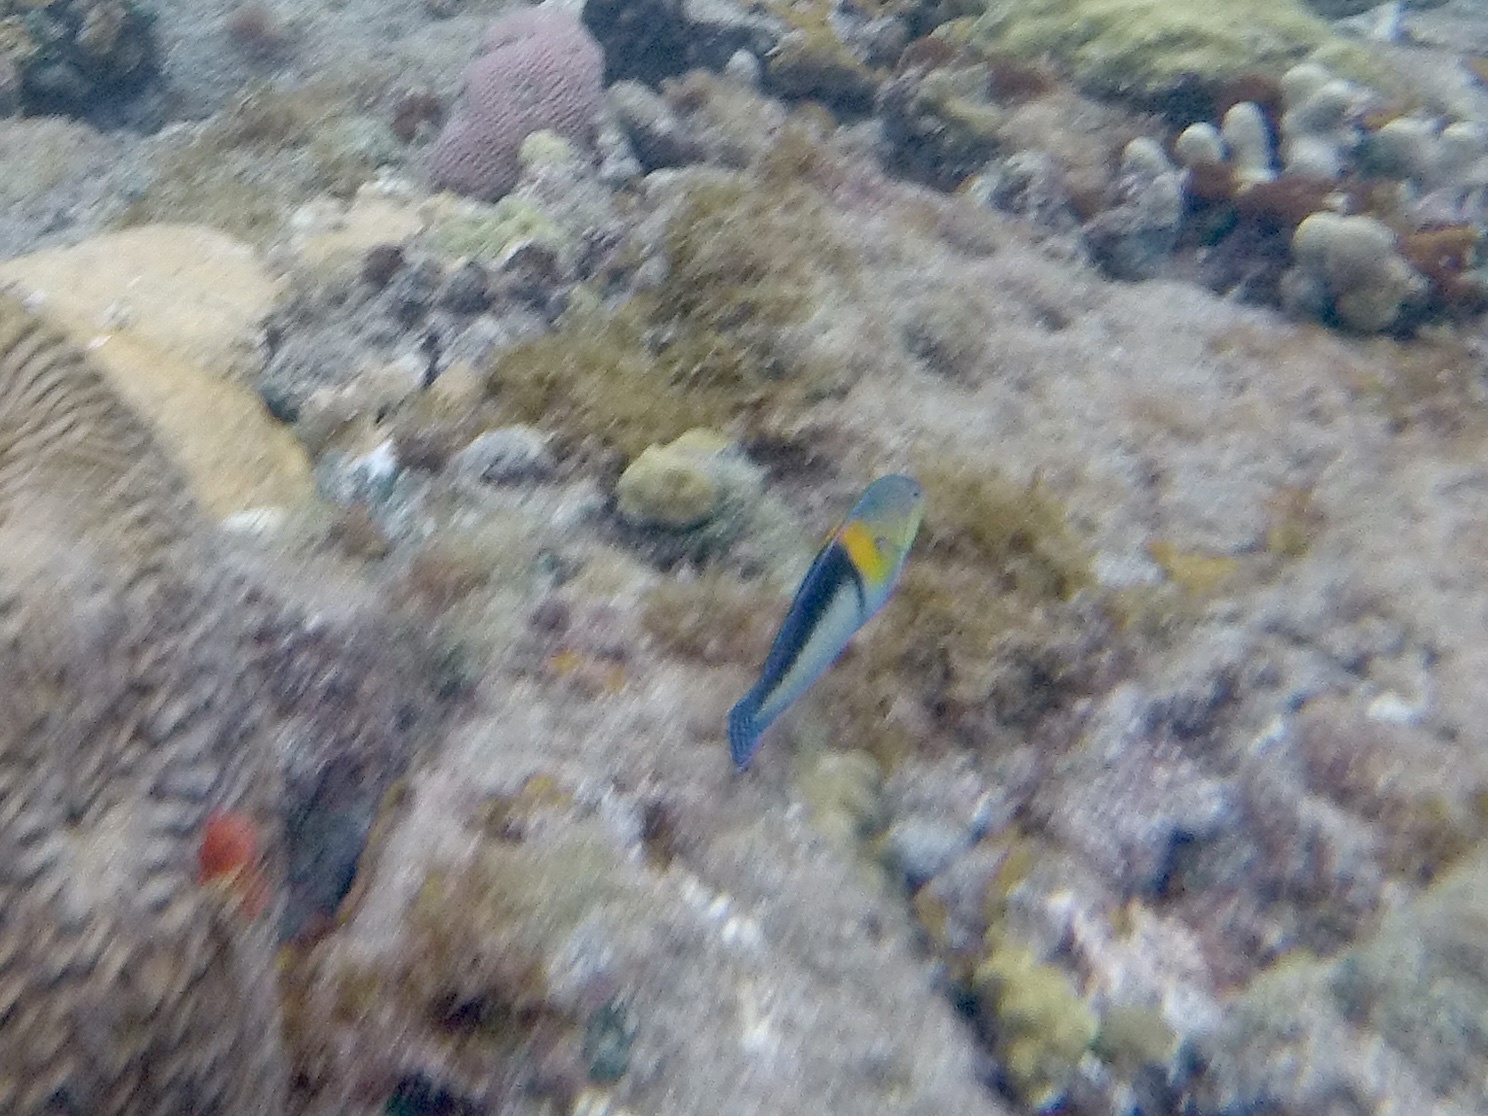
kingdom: Animalia
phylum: Chordata
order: Perciformes
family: Labridae
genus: Halichoeres
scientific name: Halichoeres garnoti
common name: Yellowhead wrasse
